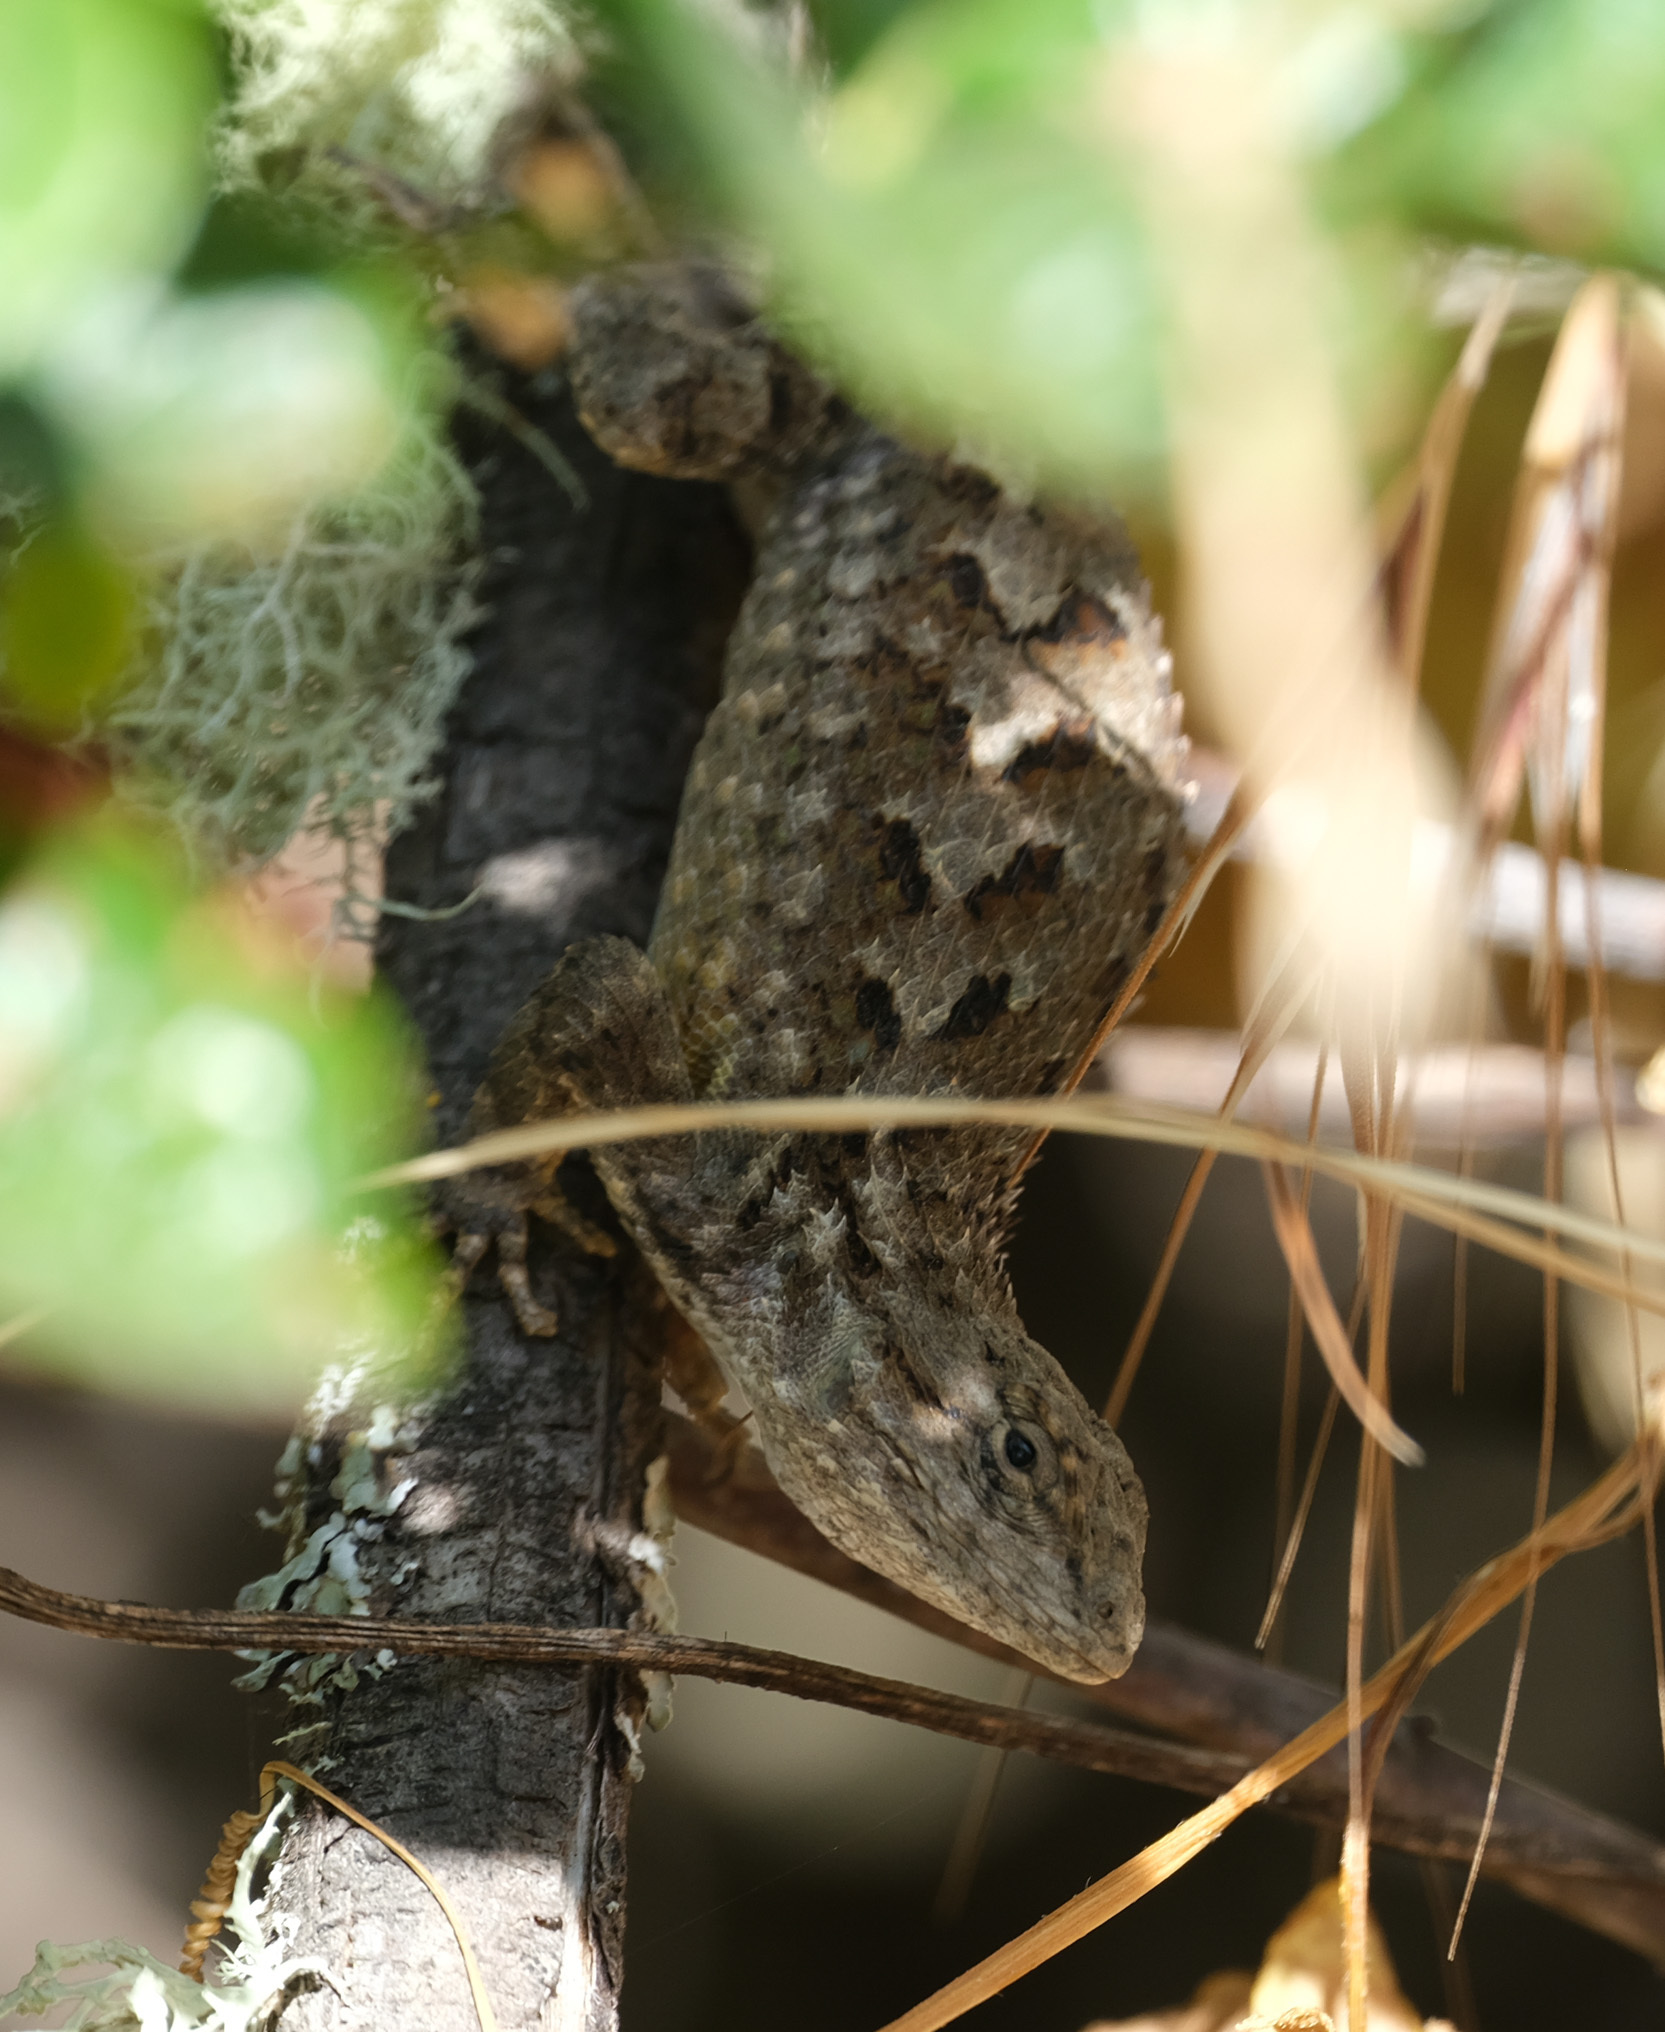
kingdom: Animalia
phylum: Chordata
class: Squamata
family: Phrynosomatidae
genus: Sceloporus
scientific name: Sceloporus occidentalis
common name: Western fence lizard
